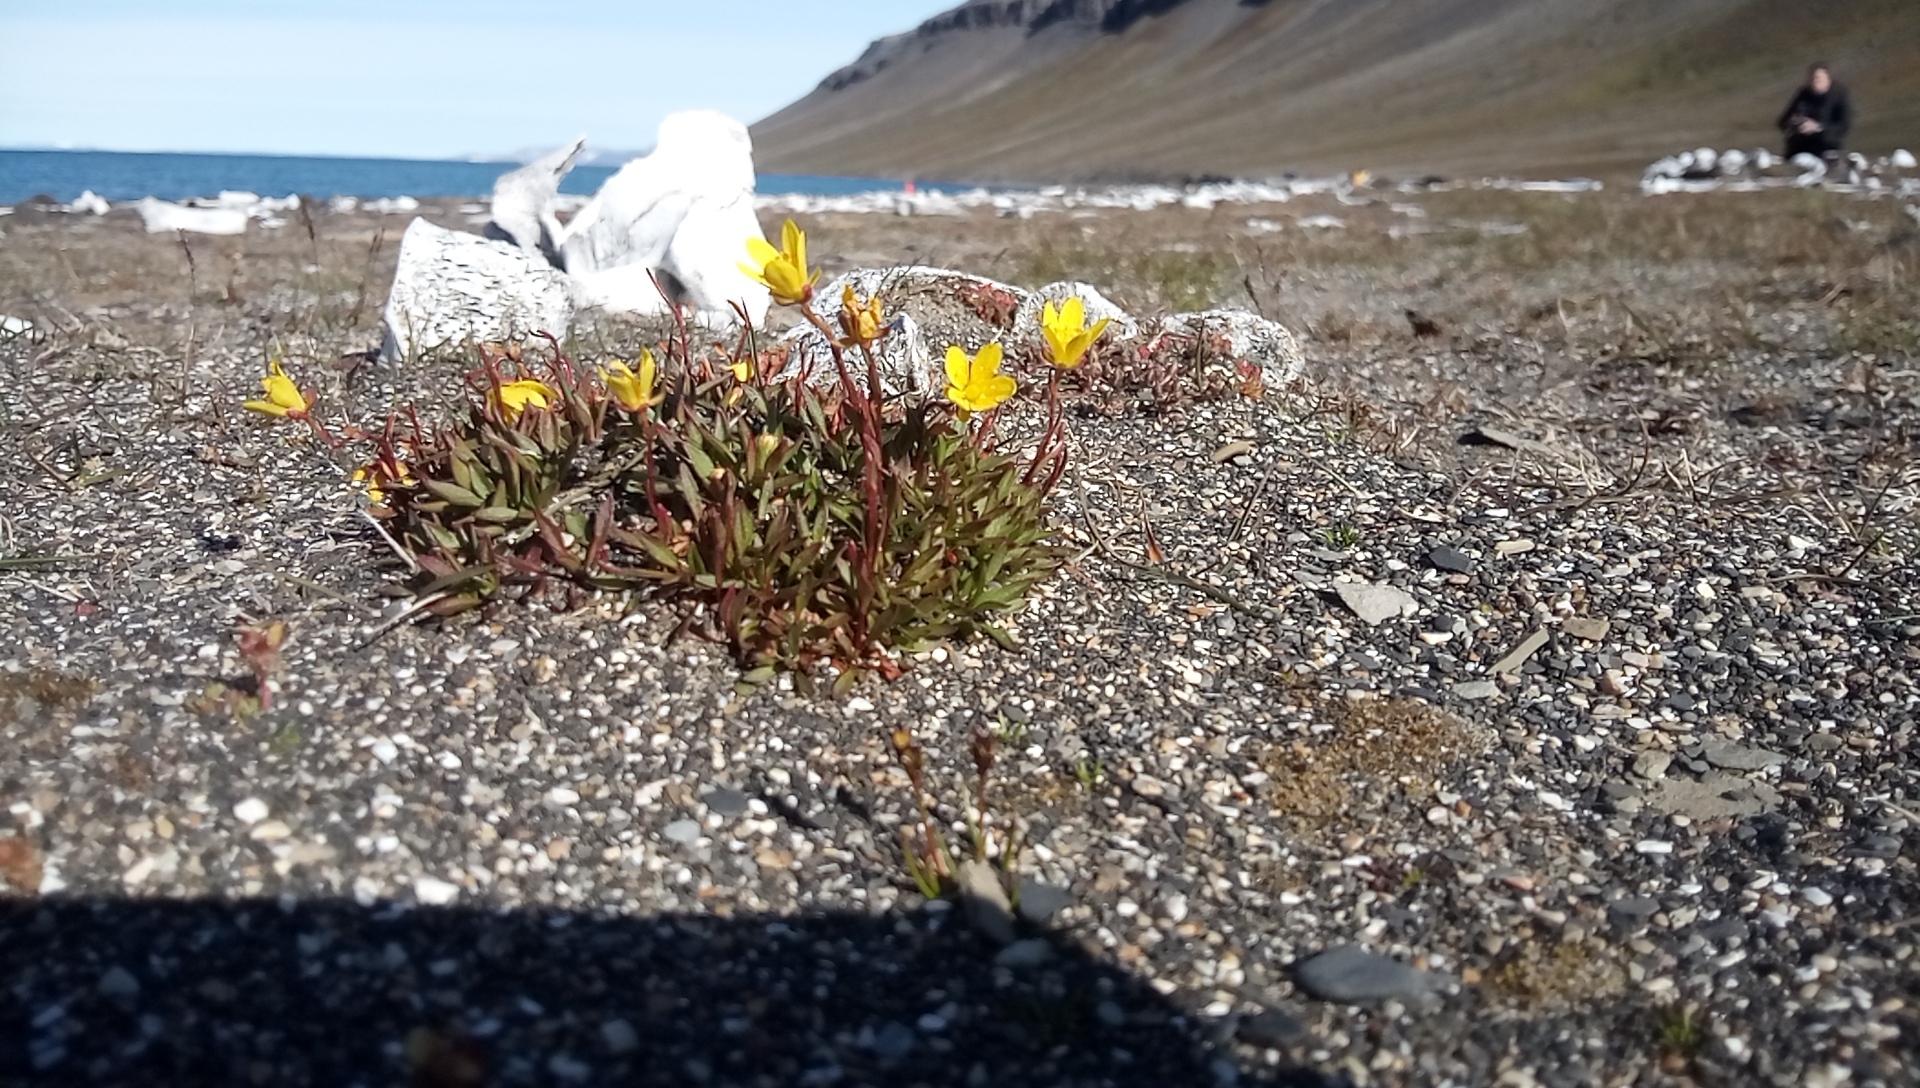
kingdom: Plantae
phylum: Tracheophyta
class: Magnoliopsida
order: Saxifragales
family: Saxifragaceae
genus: Saxifraga
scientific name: Saxifraga hirculus
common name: Yellow marsh saxifrage
